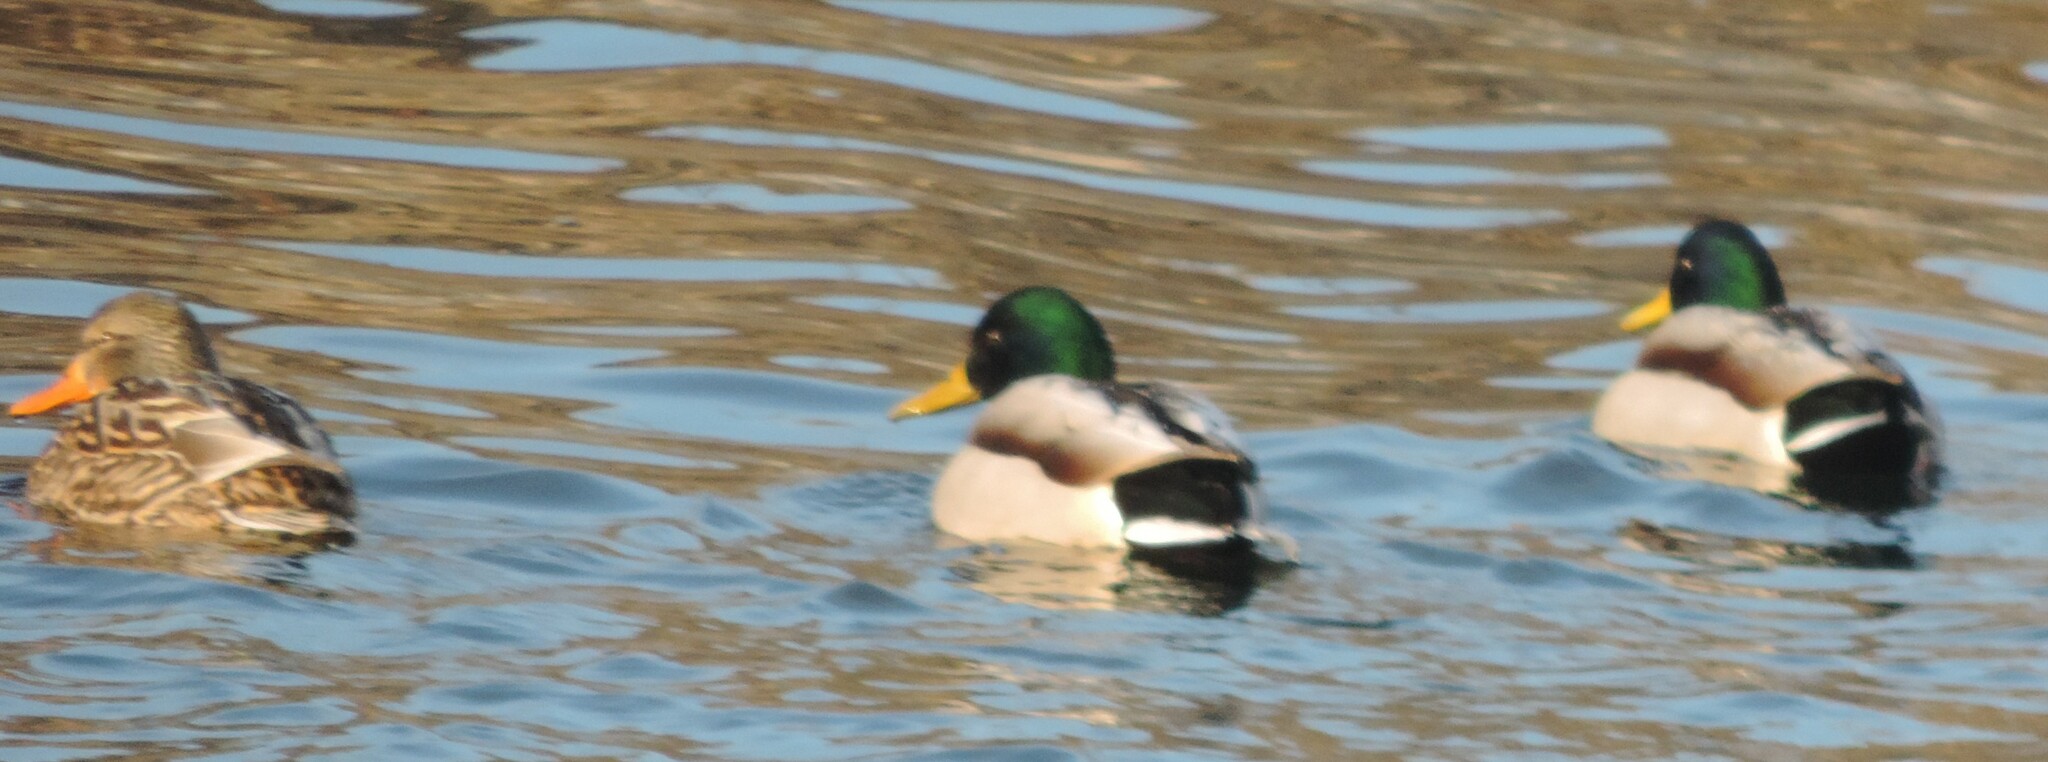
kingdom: Animalia
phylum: Chordata
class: Aves
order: Anseriformes
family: Anatidae
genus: Anas
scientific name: Anas platyrhynchos
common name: Mallard
